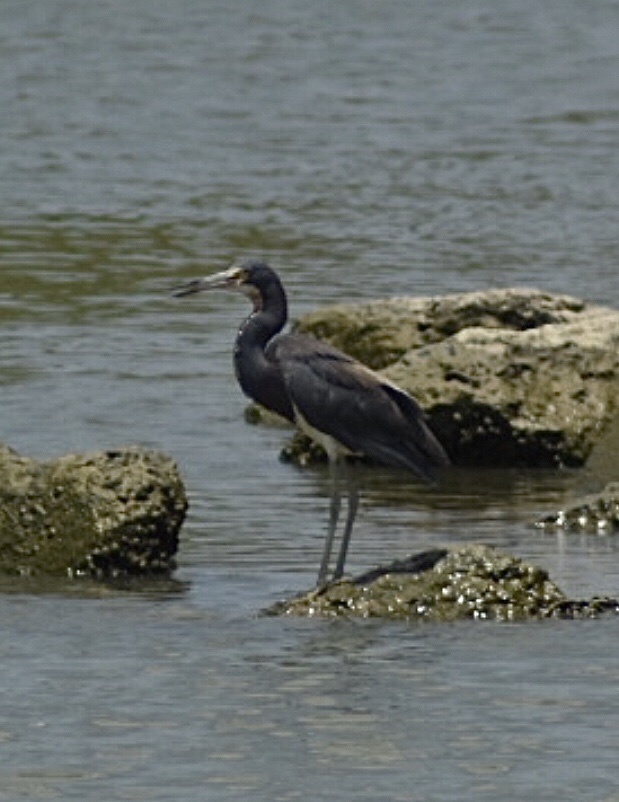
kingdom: Animalia
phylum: Chordata
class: Aves
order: Pelecaniformes
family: Ardeidae
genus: Egretta
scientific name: Egretta tricolor
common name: Tricolored heron
